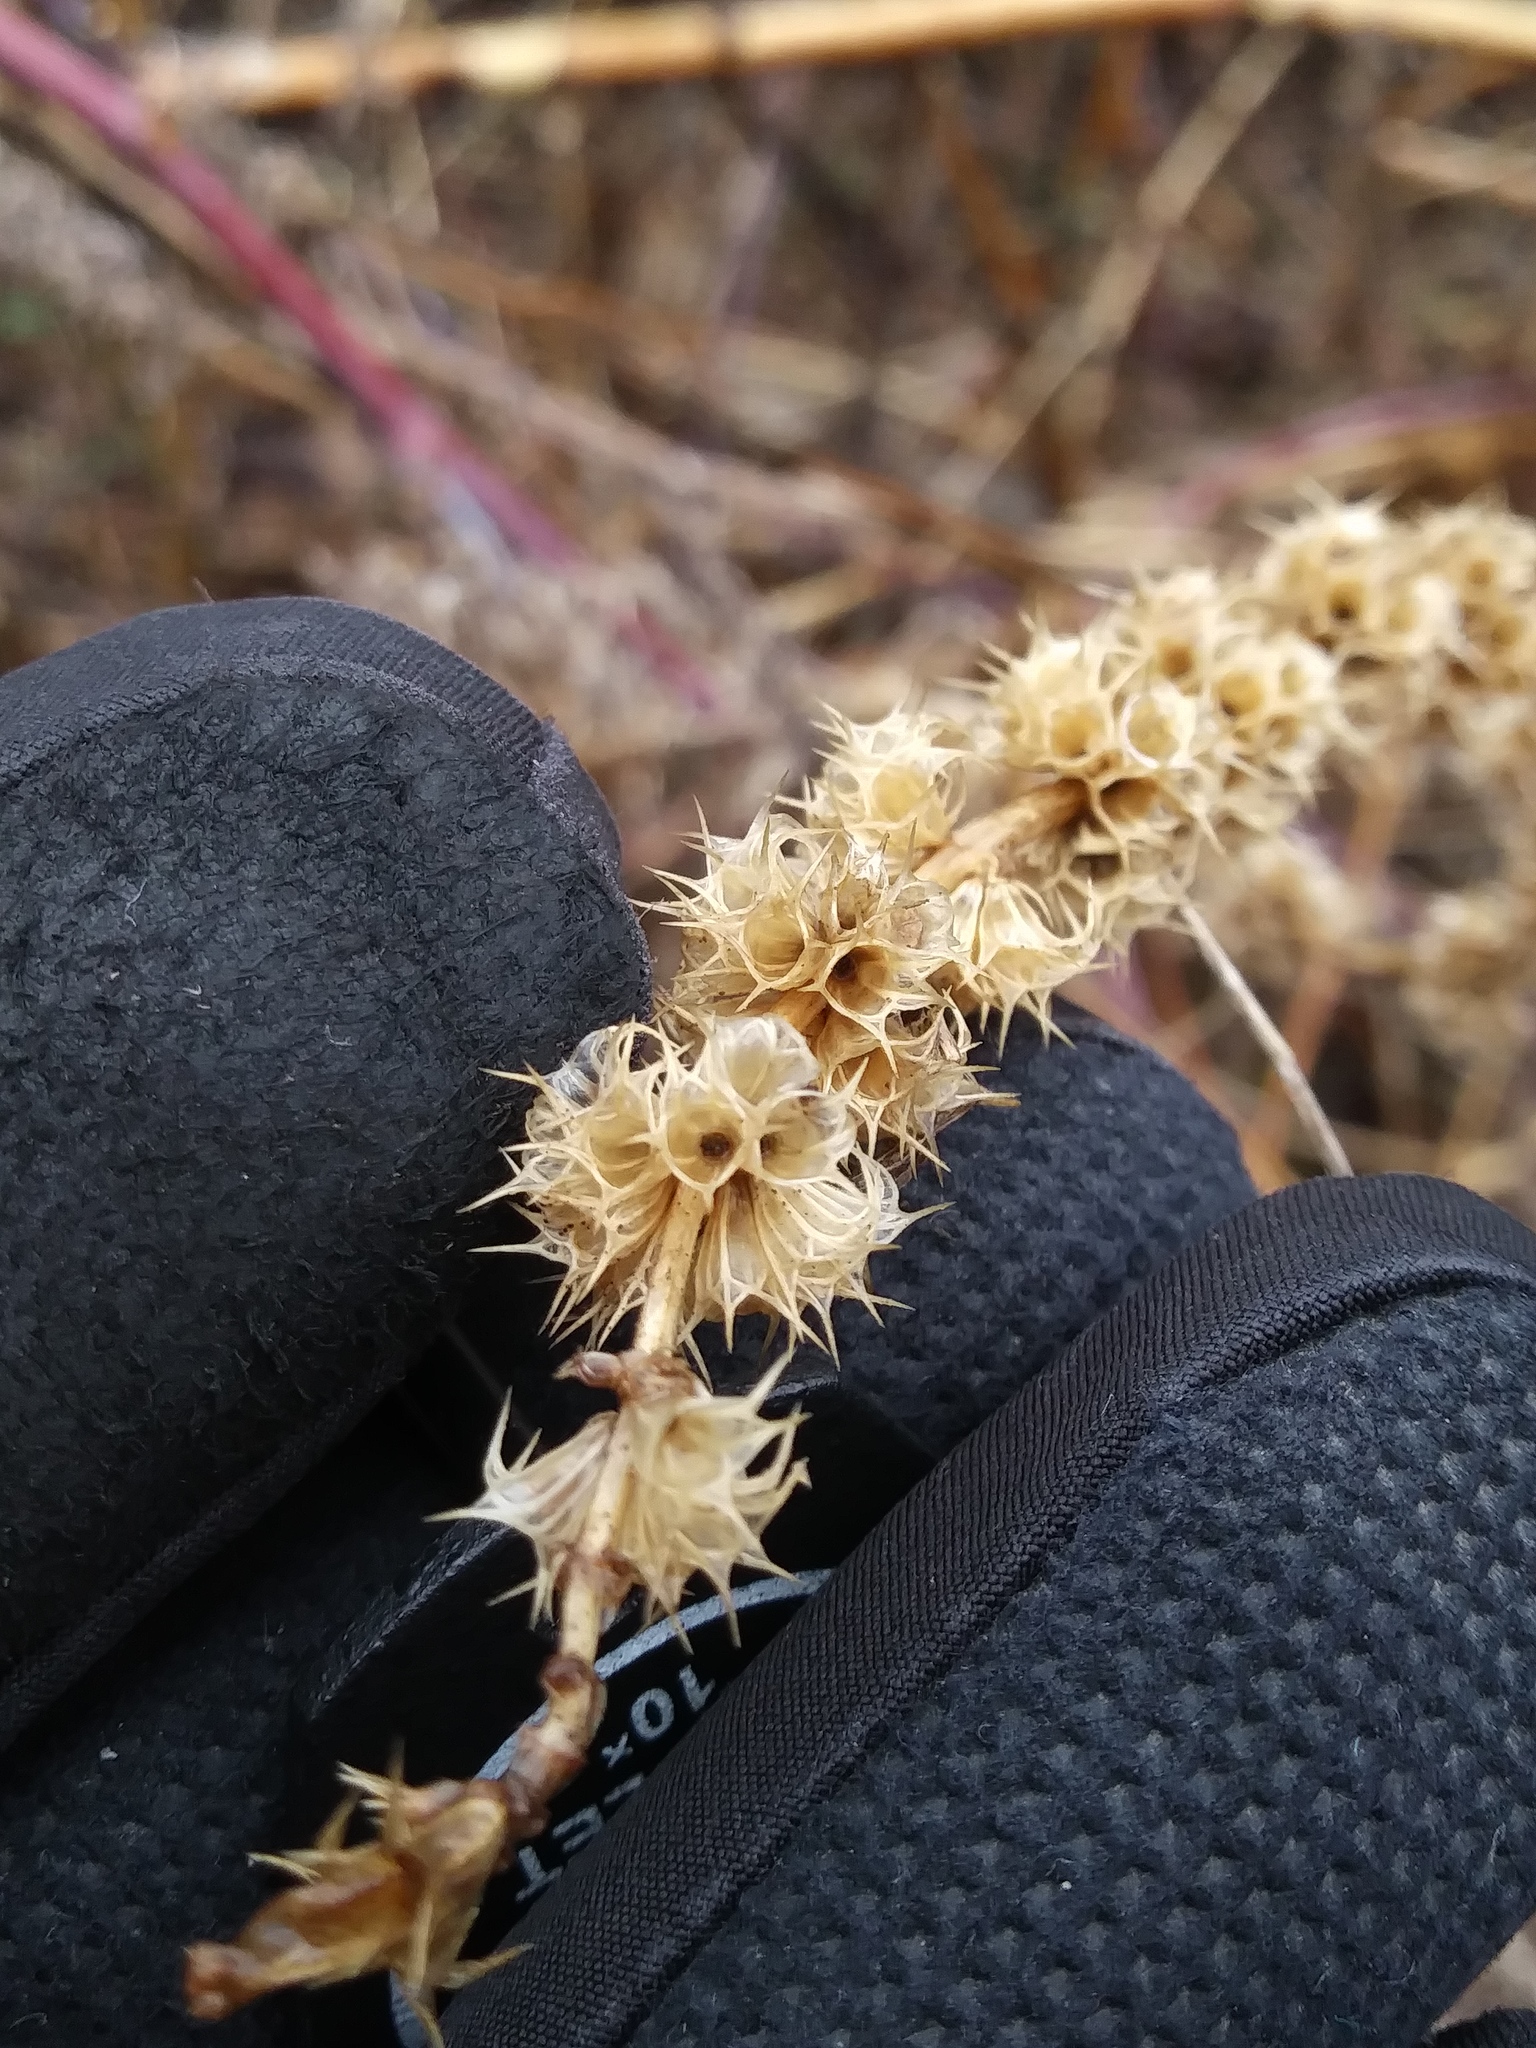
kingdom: Plantae
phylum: Tracheophyta
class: Magnoliopsida
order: Lamiales
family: Lamiaceae
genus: Leonurus
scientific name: Leonurus cardiaca
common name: Motherwort
